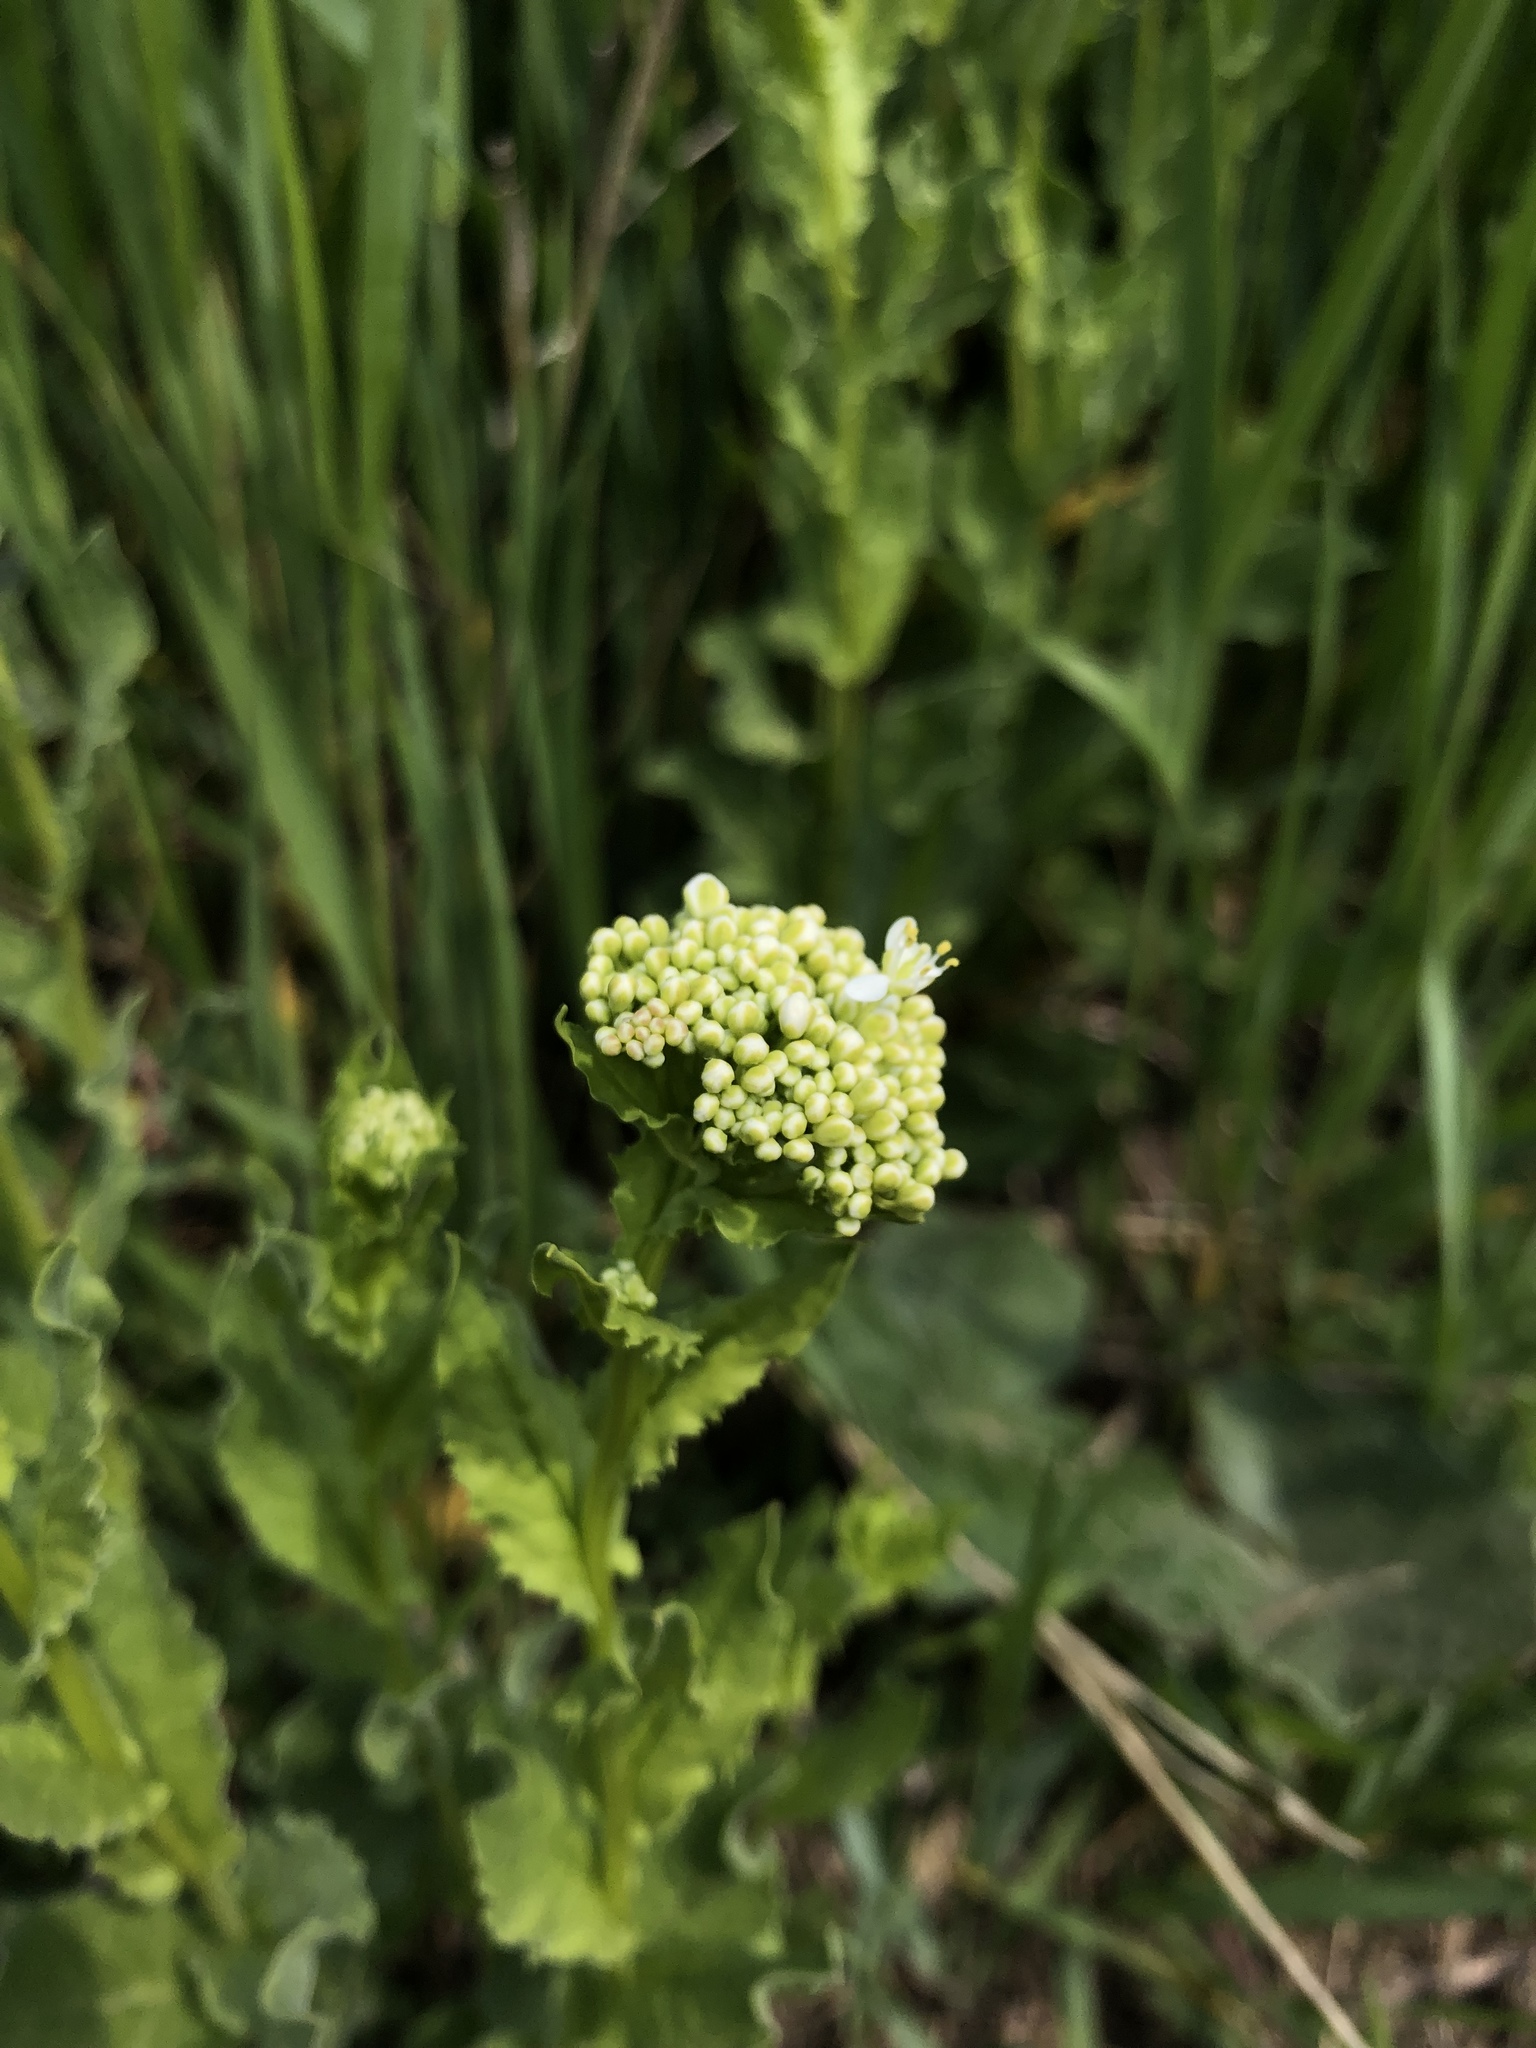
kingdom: Plantae
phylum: Tracheophyta
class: Magnoliopsida
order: Brassicales
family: Brassicaceae
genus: Lepidium
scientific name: Lepidium draba
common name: Hoary cress
